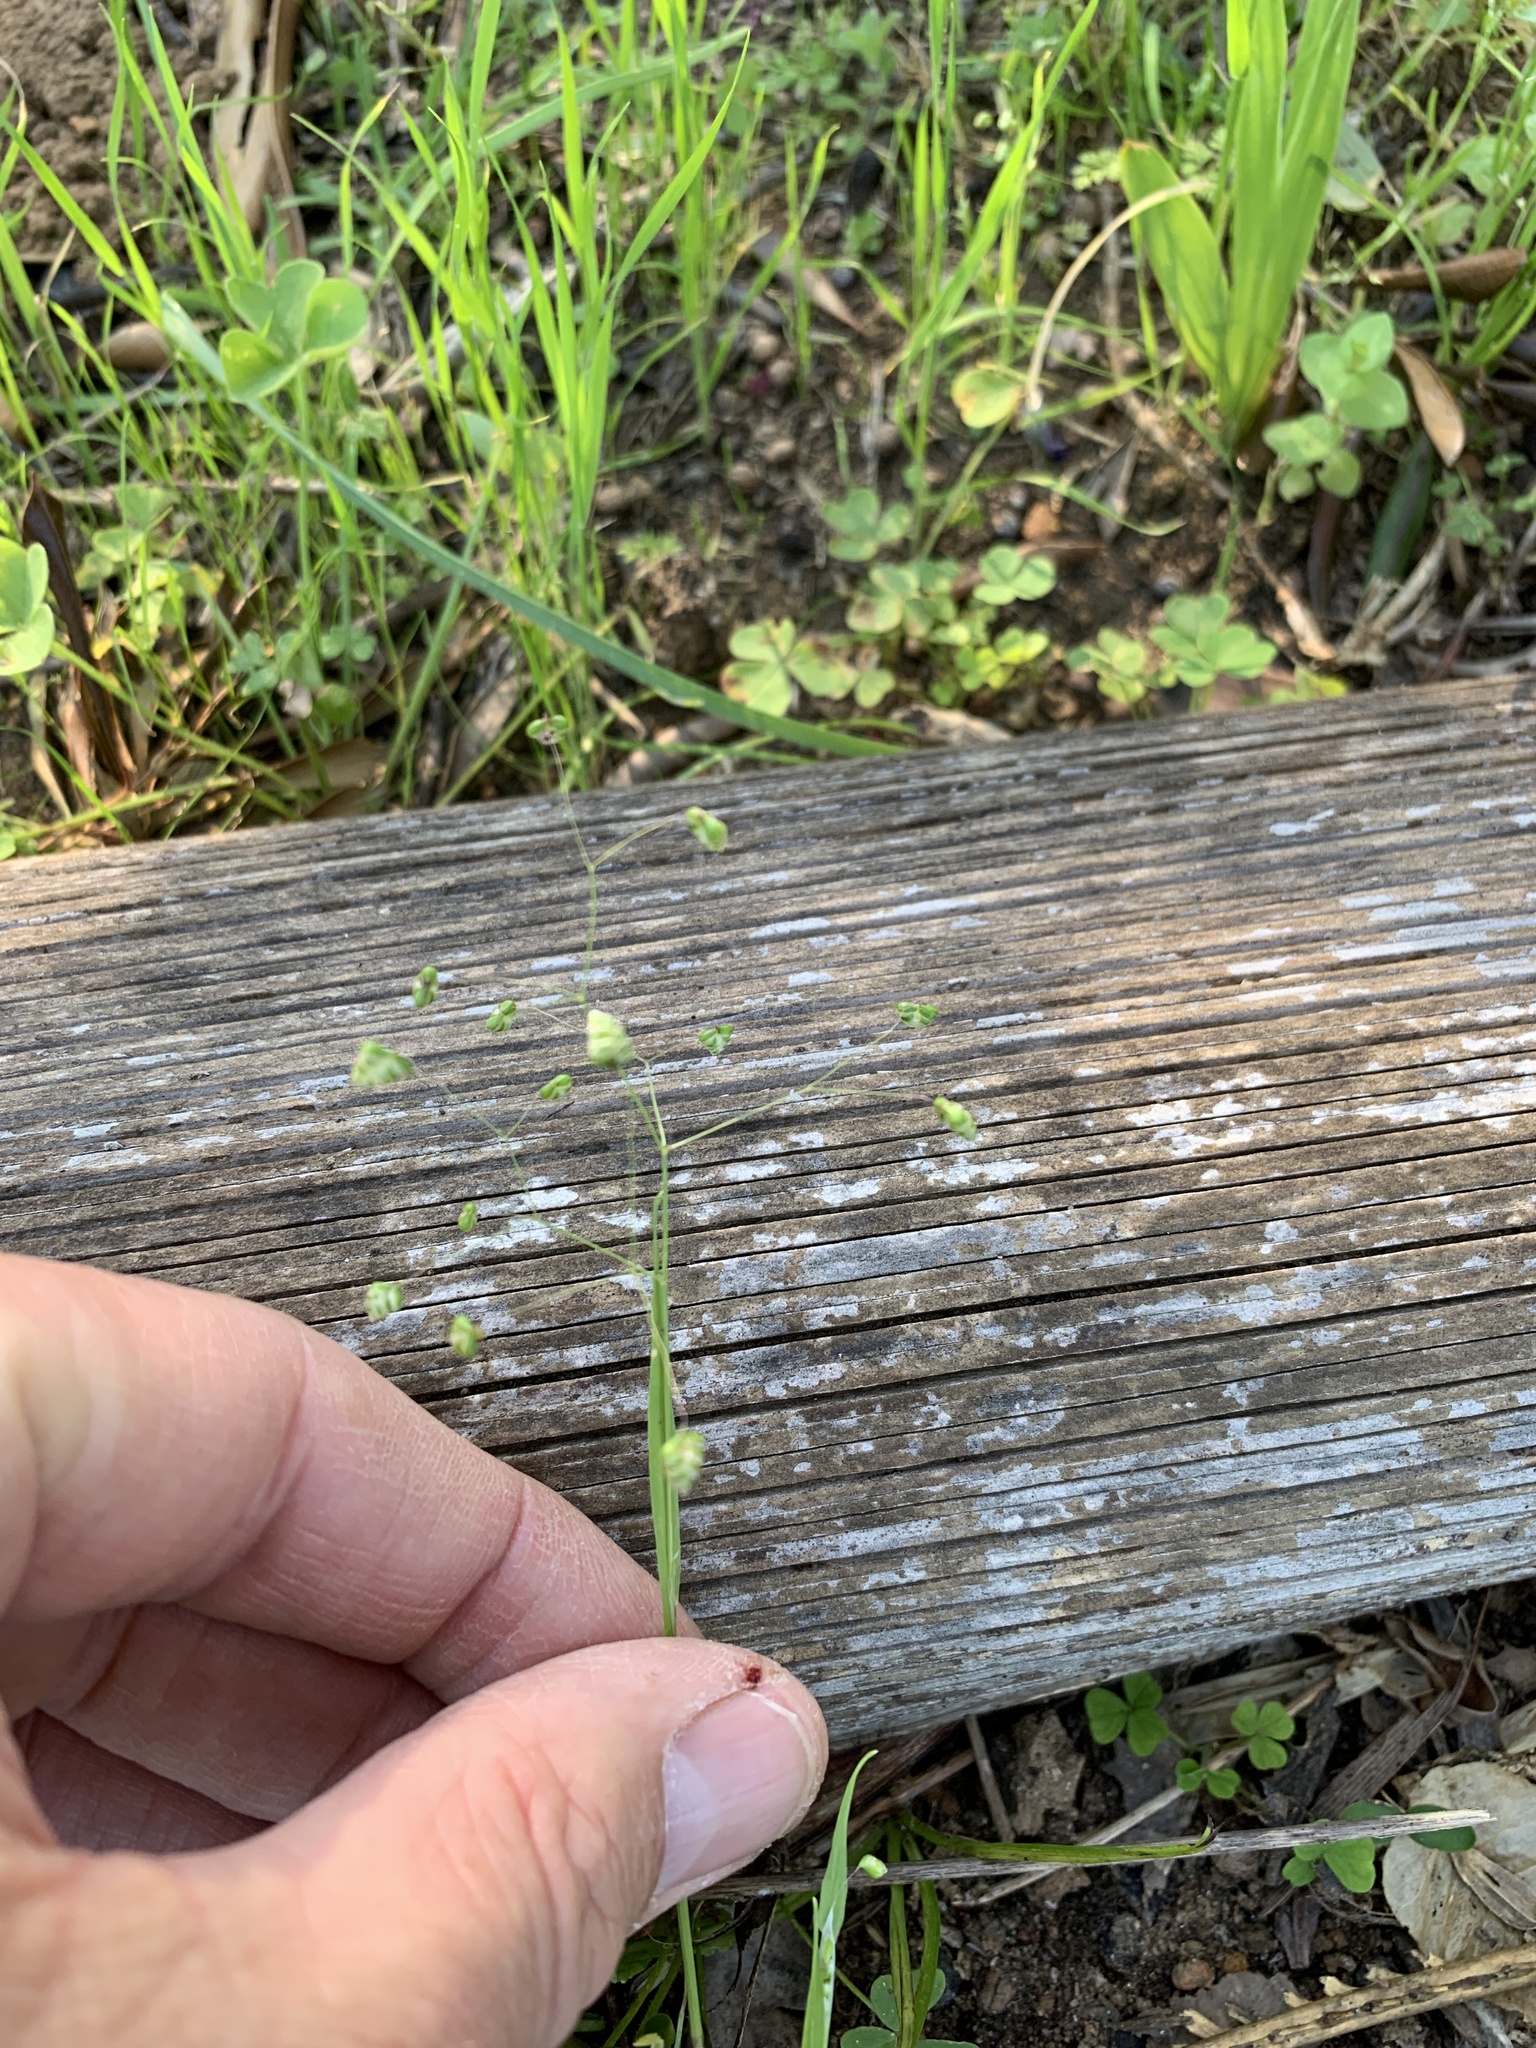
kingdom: Plantae
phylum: Tracheophyta
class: Liliopsida
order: Poales
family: Poaceae
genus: Briza
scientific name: Briza minor
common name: Lesser quaking-grass
